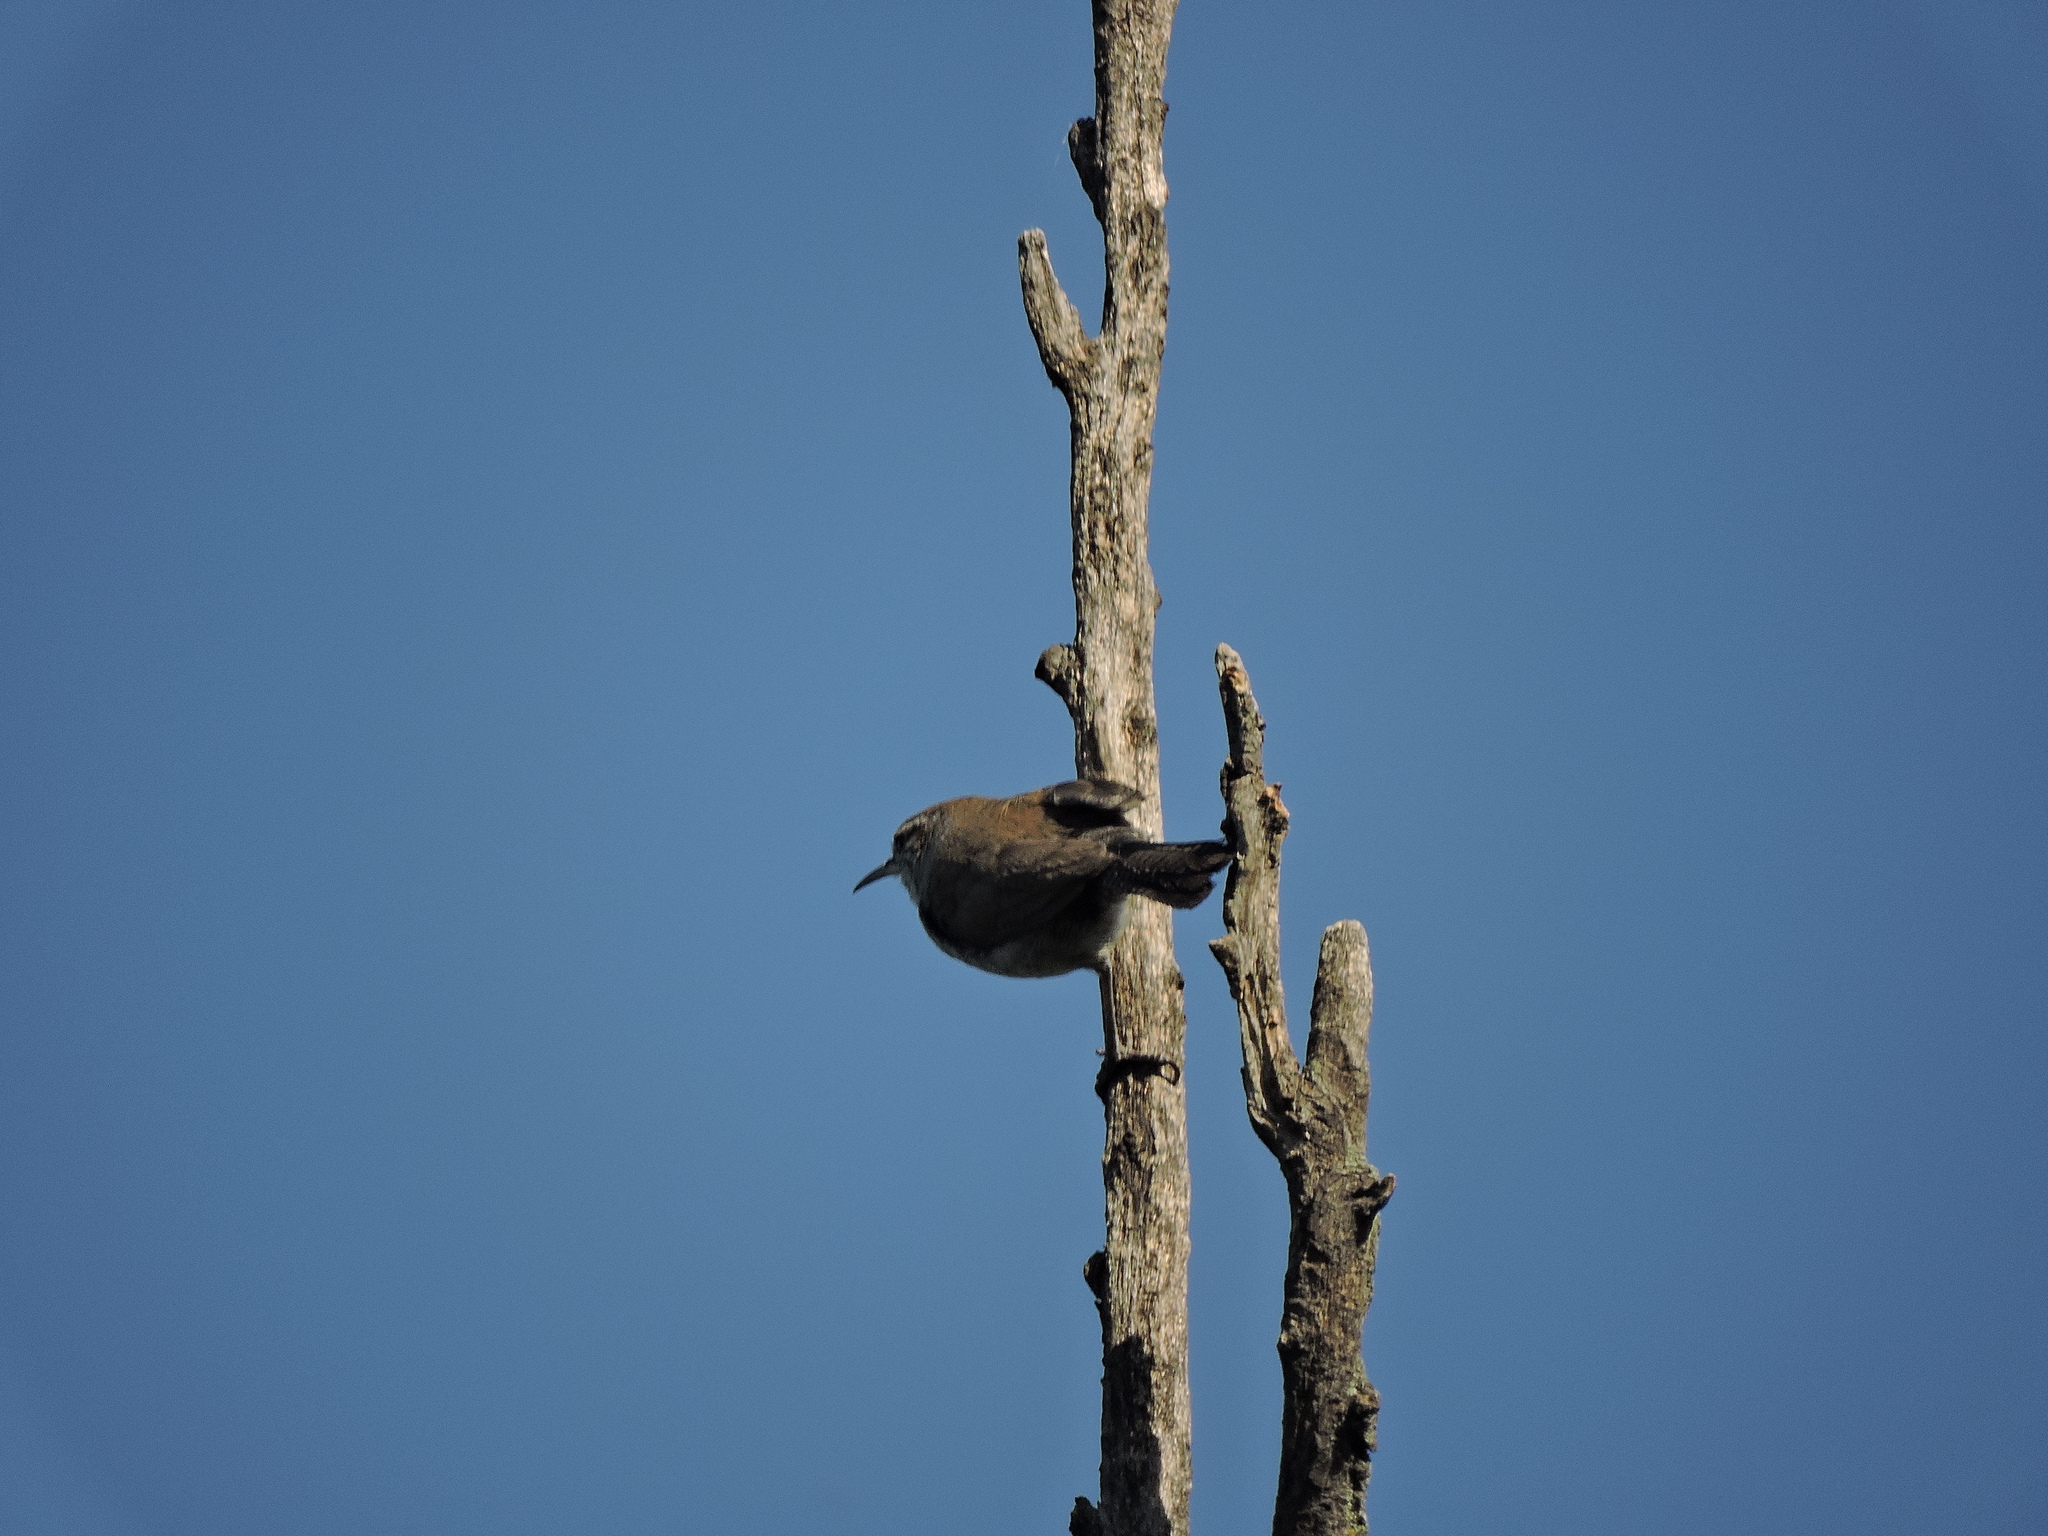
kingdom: Animalia
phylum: Chordata
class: Aves
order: Passeriformes
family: Troglodytidae
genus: Thryomanes
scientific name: Thryomanes bewickii
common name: Bewick's wren
